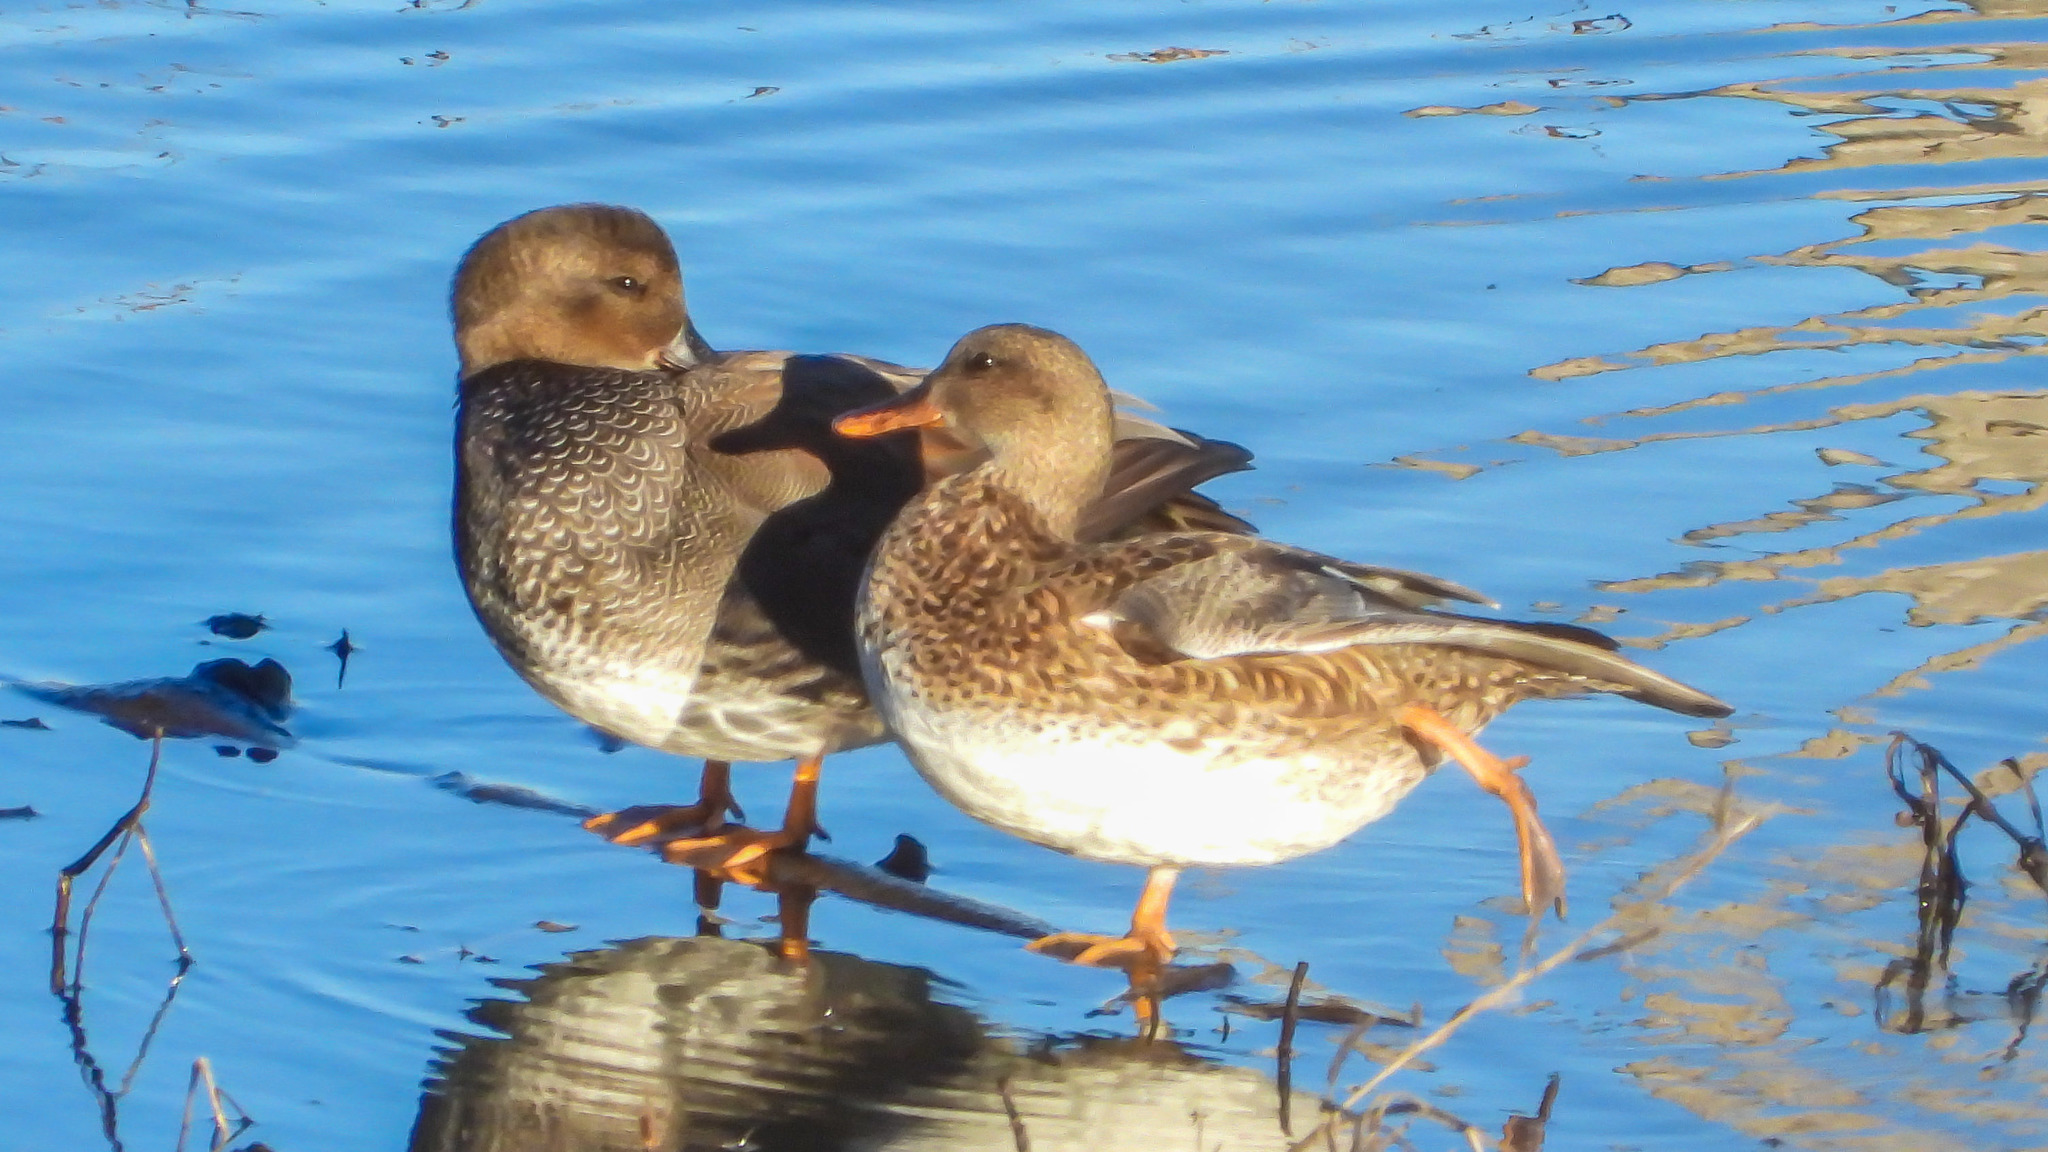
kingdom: Animalia
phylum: Chordata
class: Aves
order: Anseriformes
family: Anatidae
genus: Mareca
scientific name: Mareca strepera
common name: Gadwall
